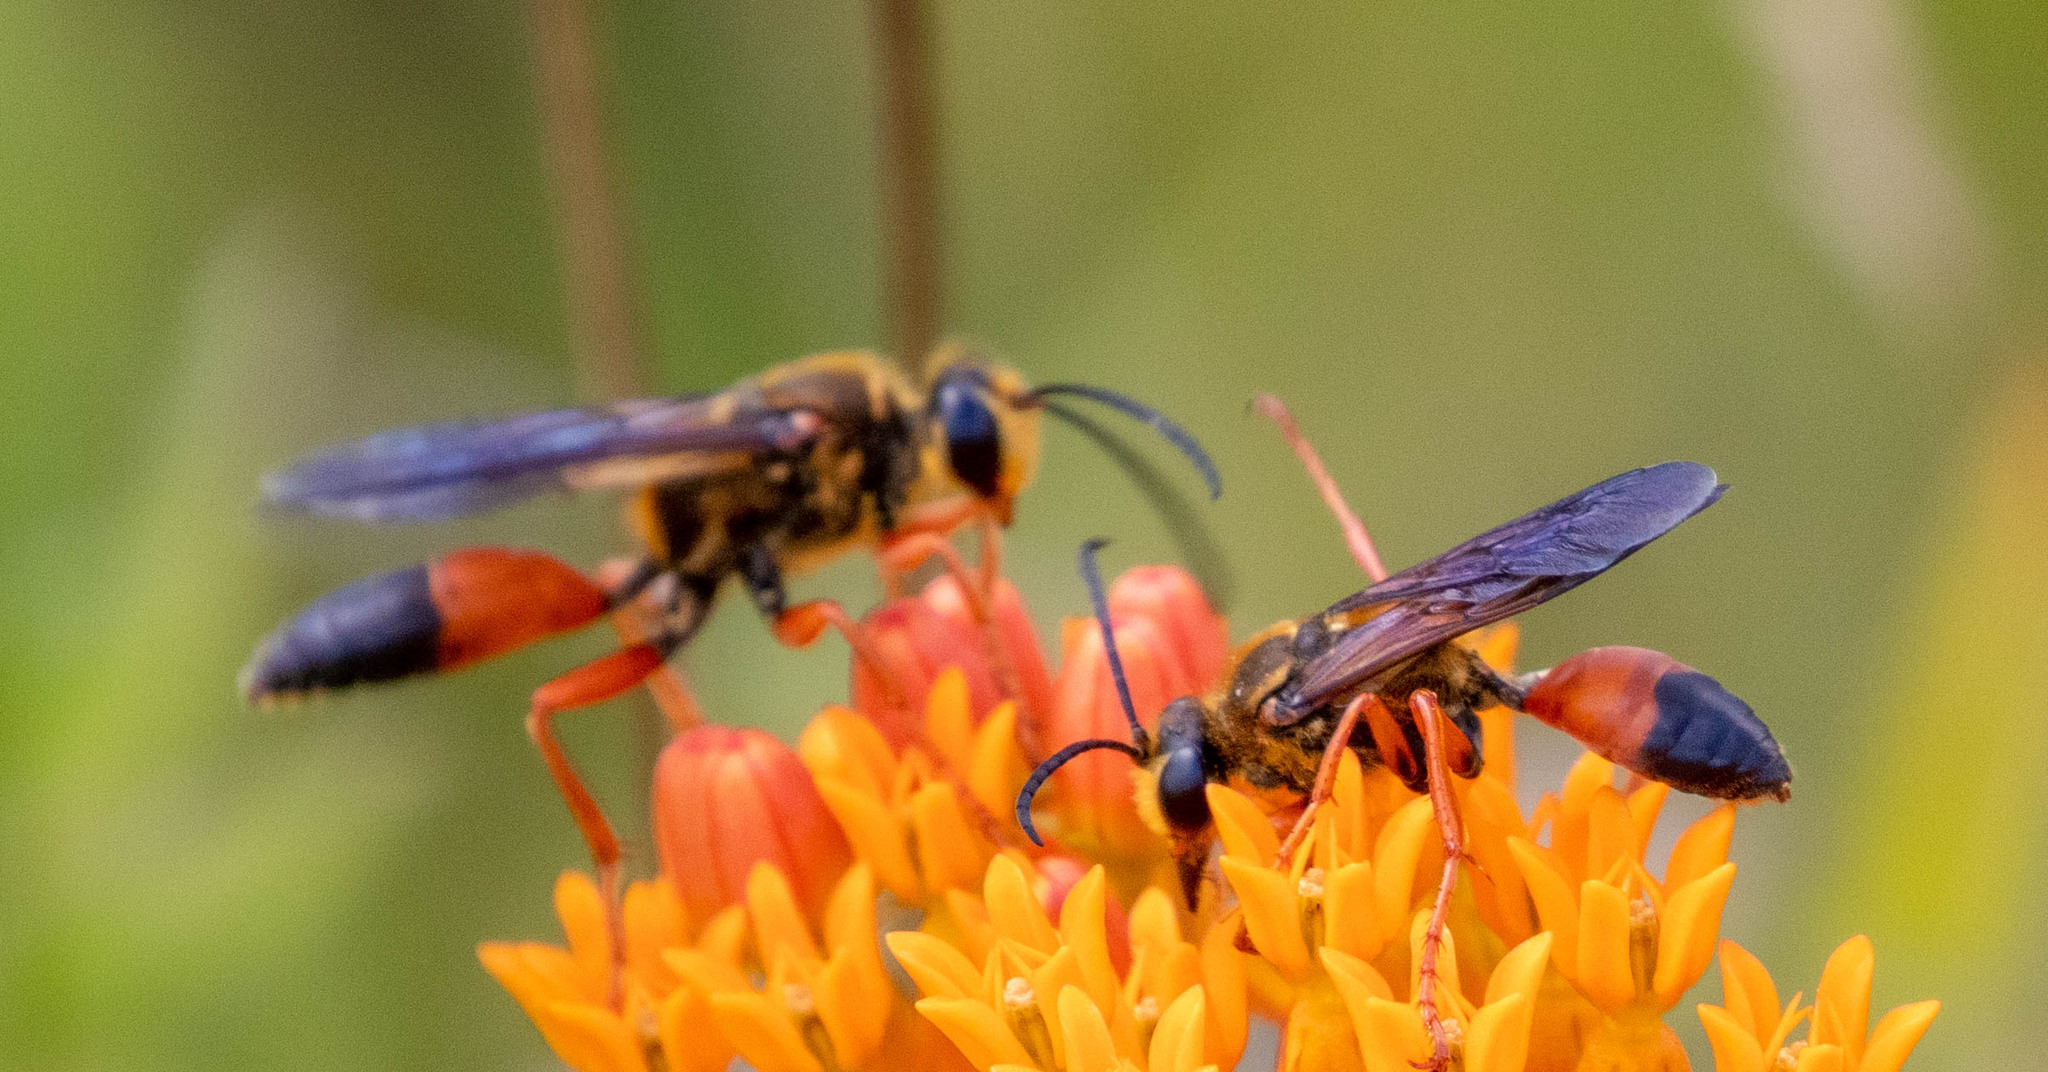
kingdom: Animalia
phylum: Arthropoda
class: Insecta
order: Hymenoptera
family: Sphecidae
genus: Sphex
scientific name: Sphex ichneumoneus
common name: Great golden digger wasp
